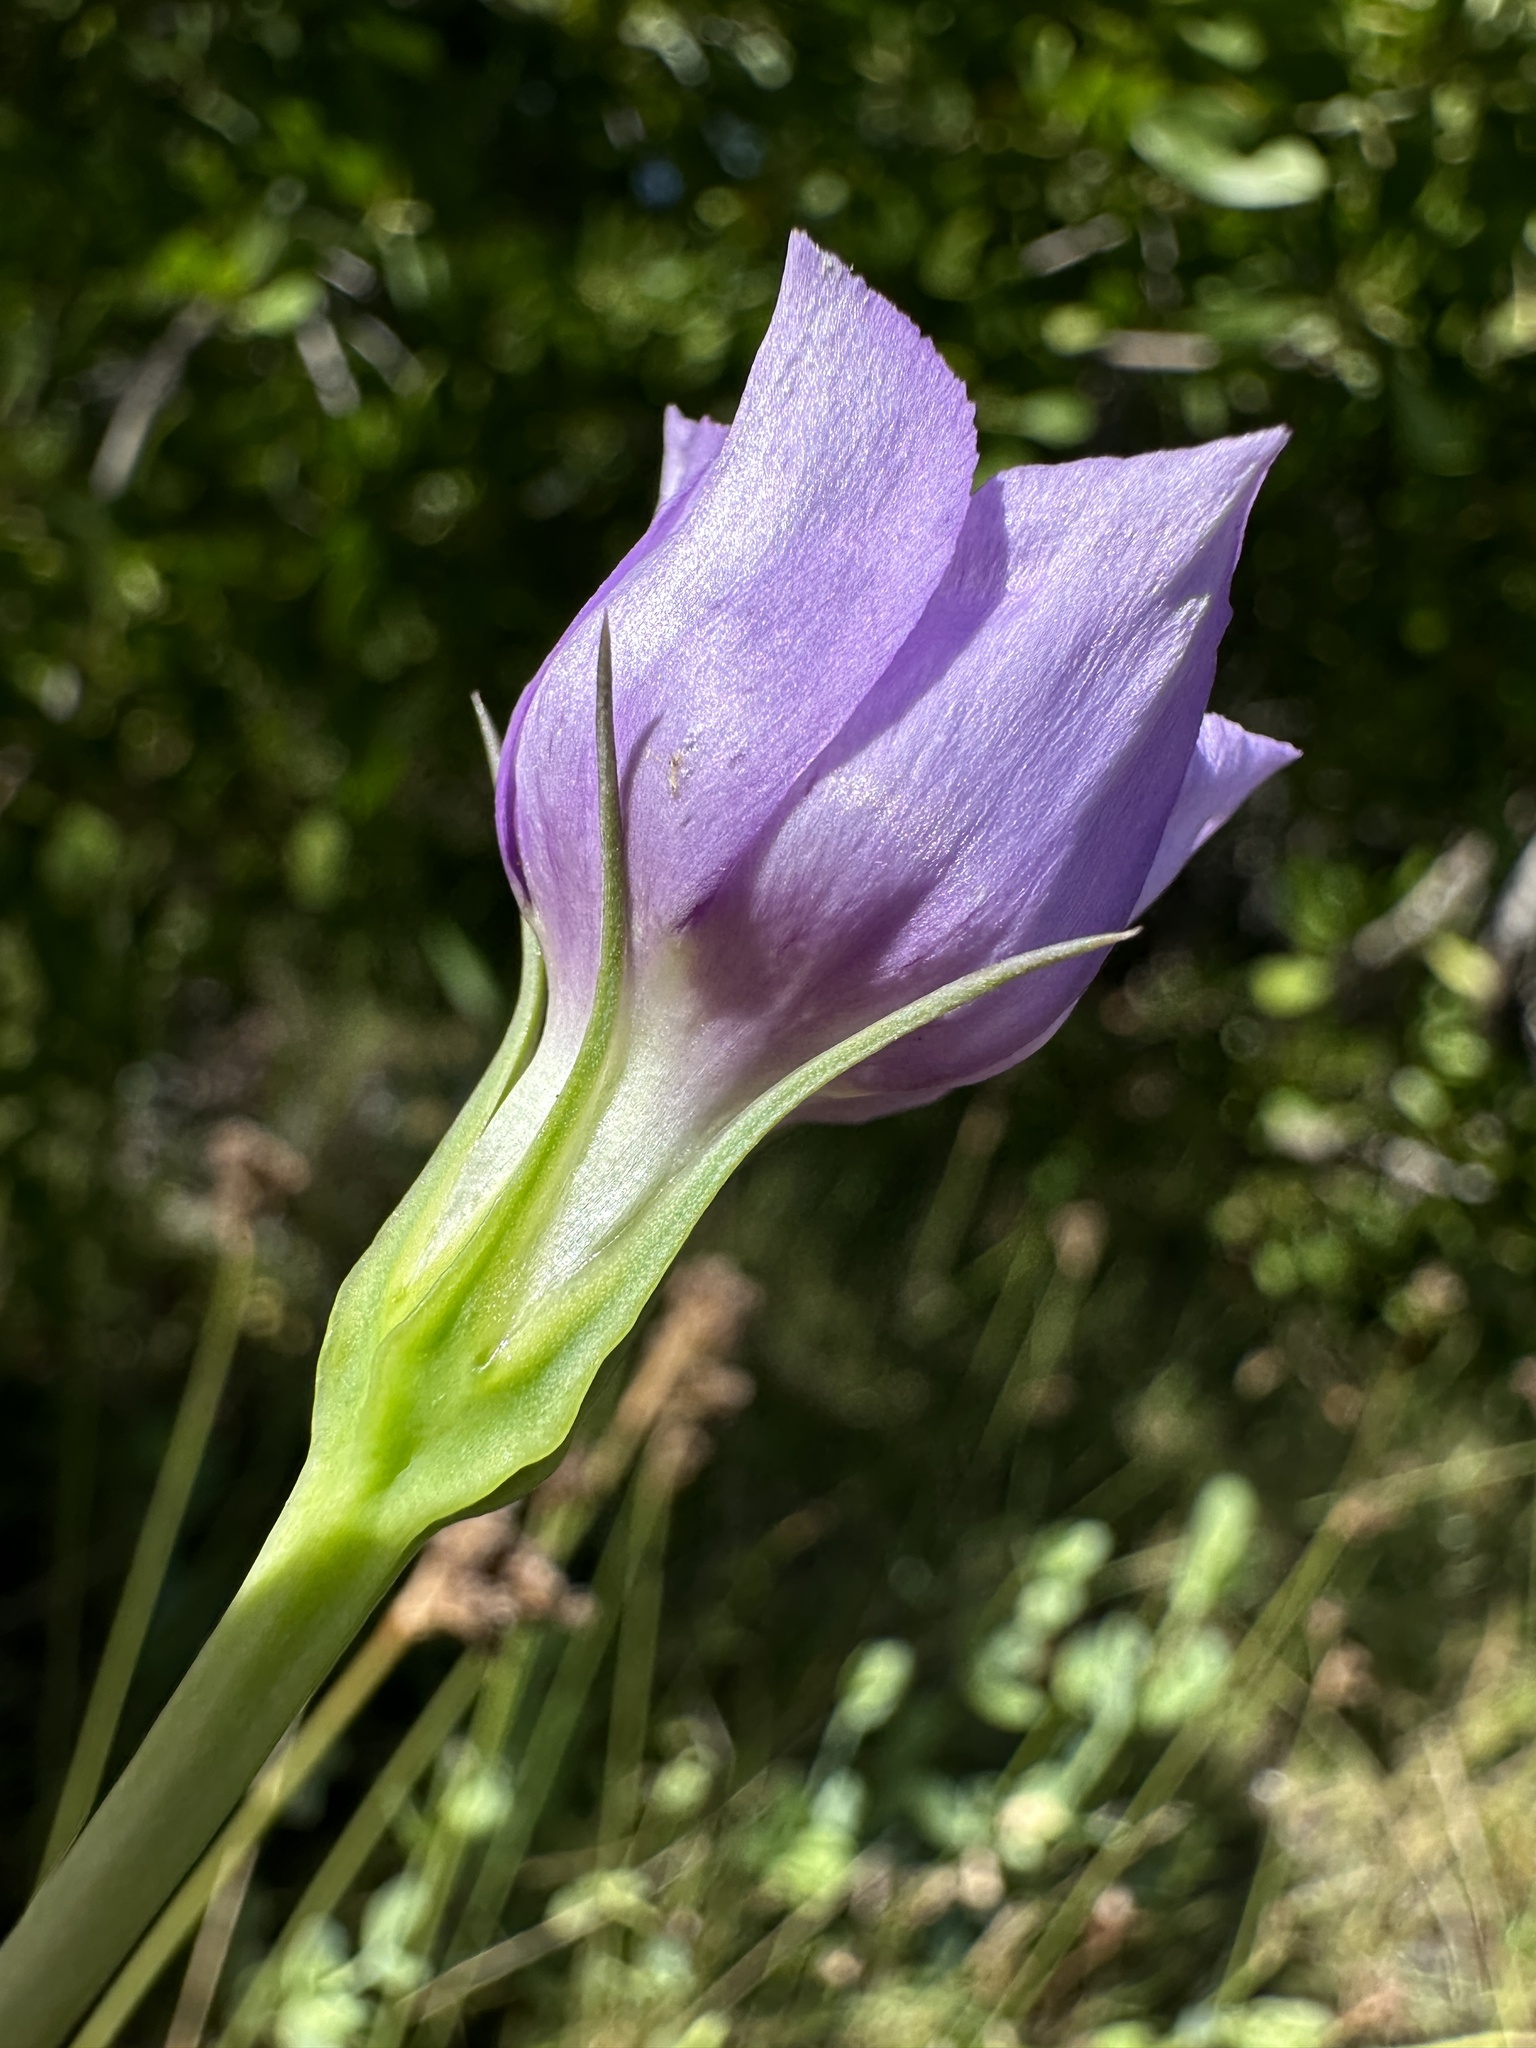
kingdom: Plantae
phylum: Tracheophyta
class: Magnoliopsida
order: Gentianales
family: Gentianaceae
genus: Eustoma
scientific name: Eustoma exaltatum
